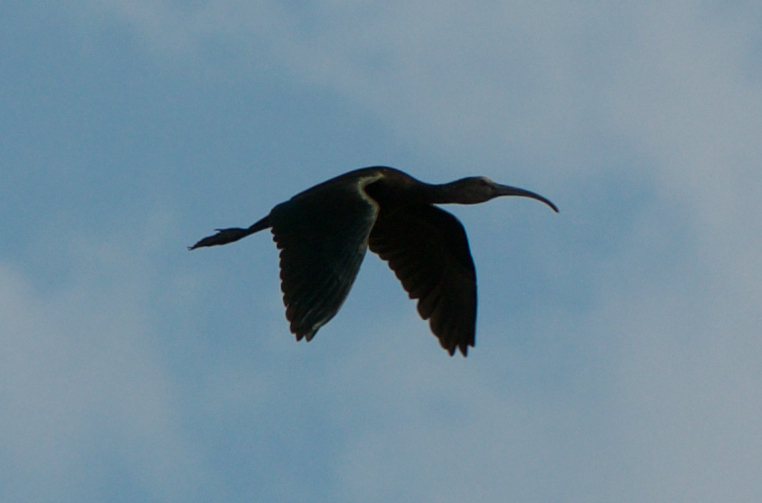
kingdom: Animalia
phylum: Chordata
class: Aves
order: Pelecaniformes
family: Threskiornithidae
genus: Plegadis
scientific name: Plegadis chihi
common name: White-faced ibis
